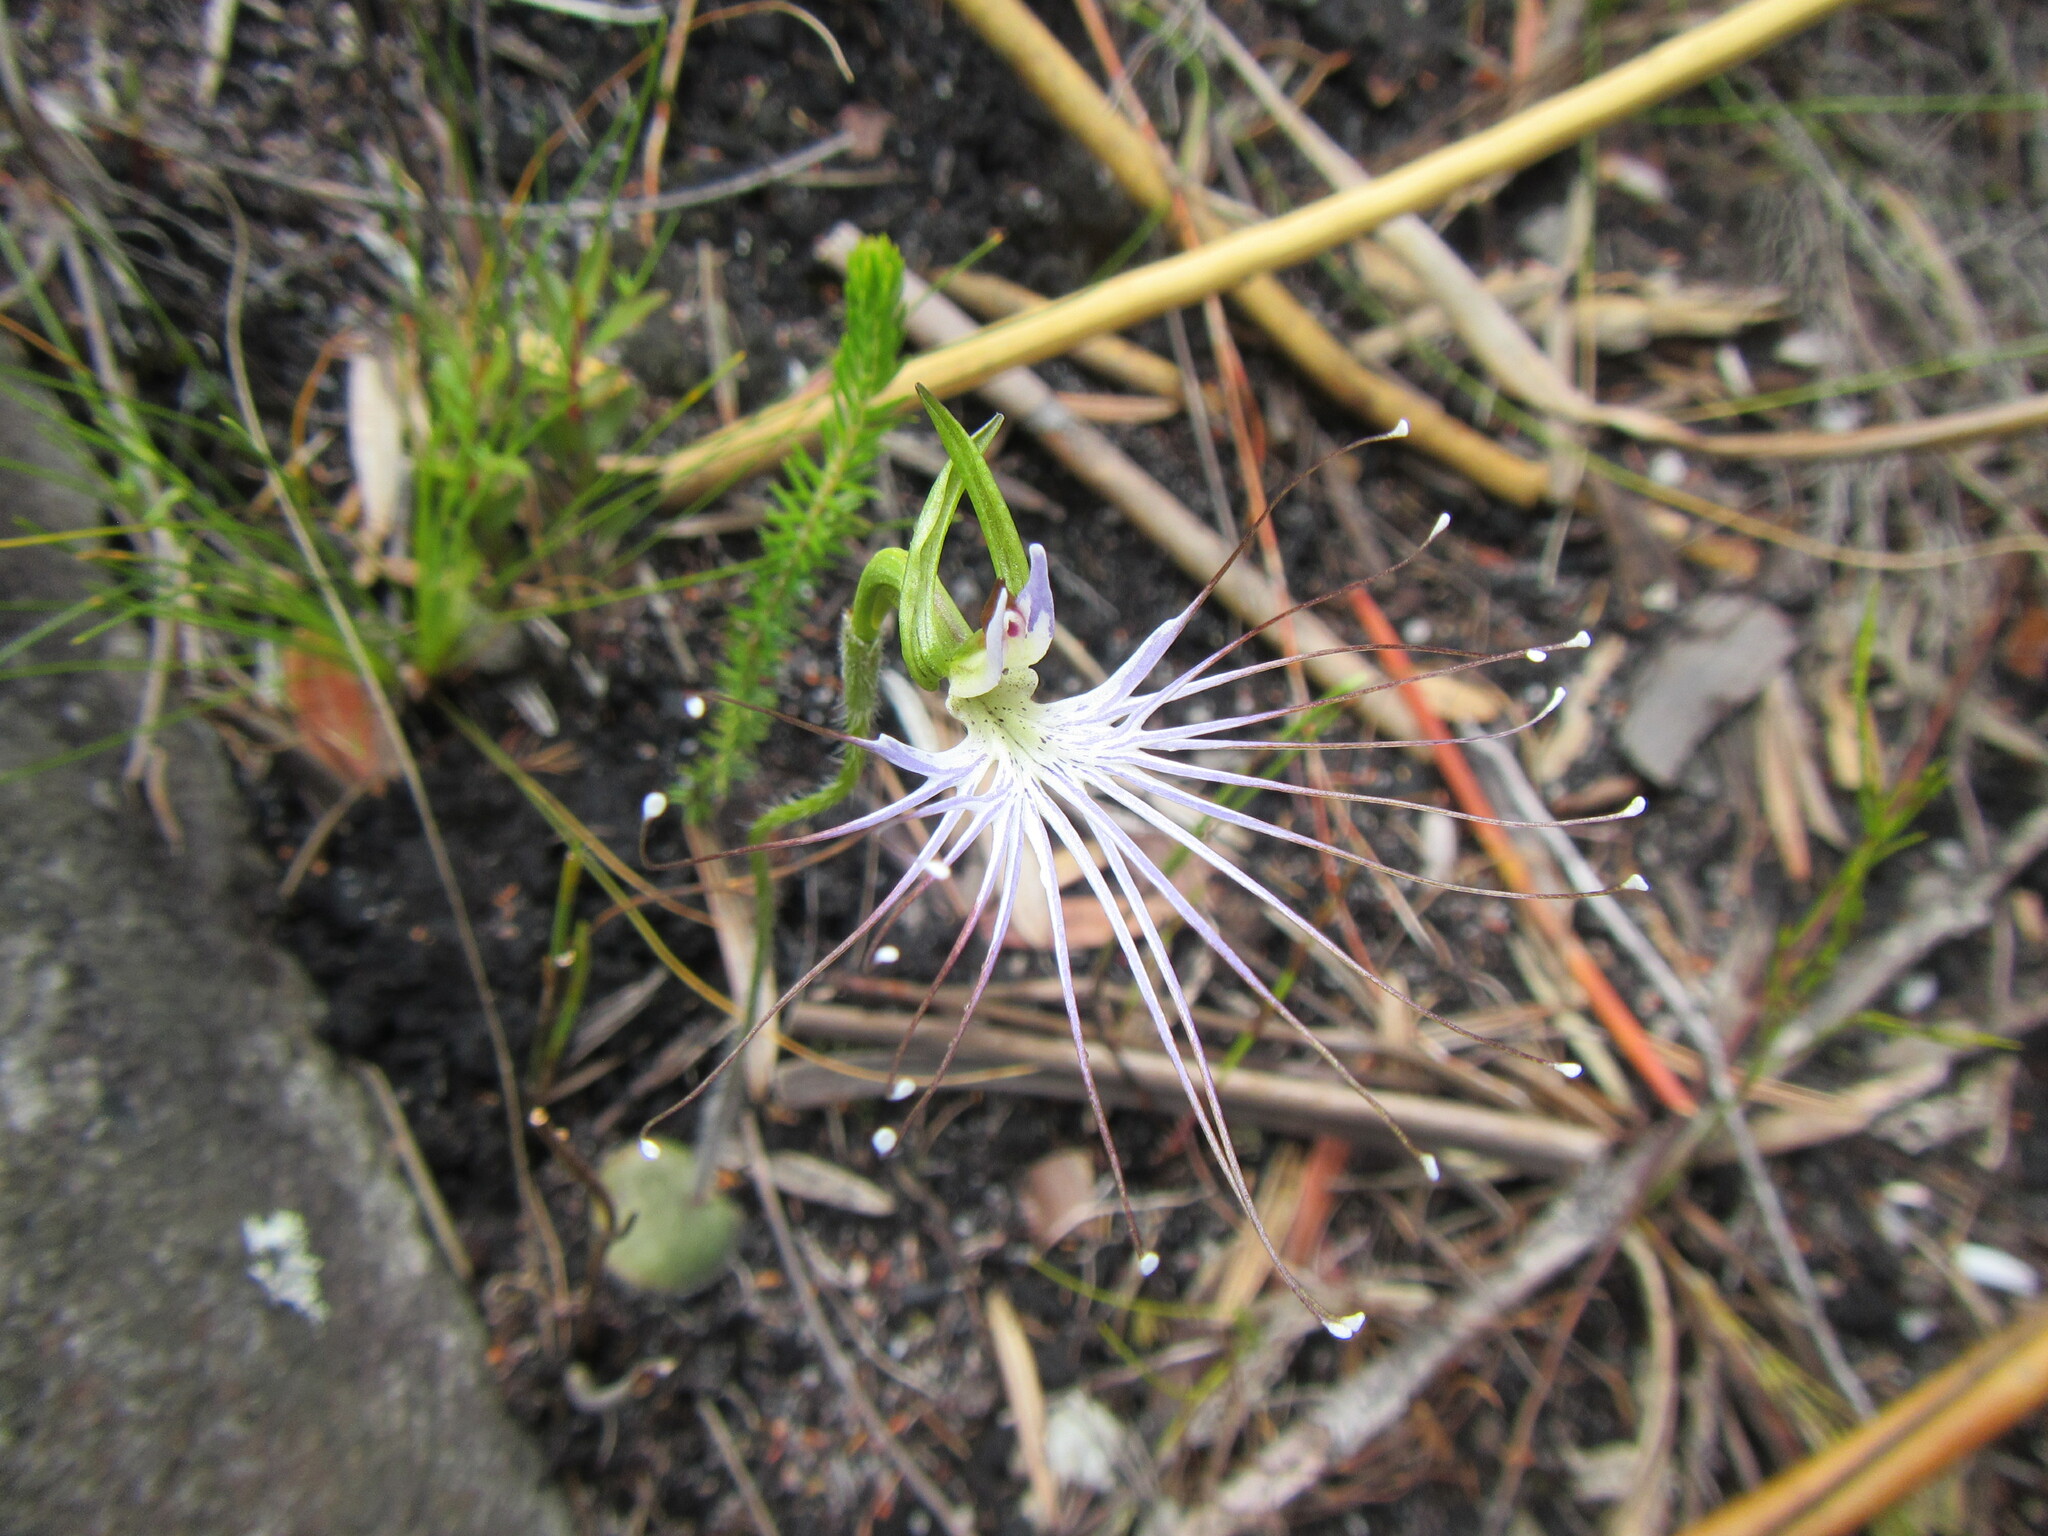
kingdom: Plantae
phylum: Tracheophyta
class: Liliopsida
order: Asparagales
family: Orchidaceae
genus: Holothrix
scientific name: Holothrix etheliae
